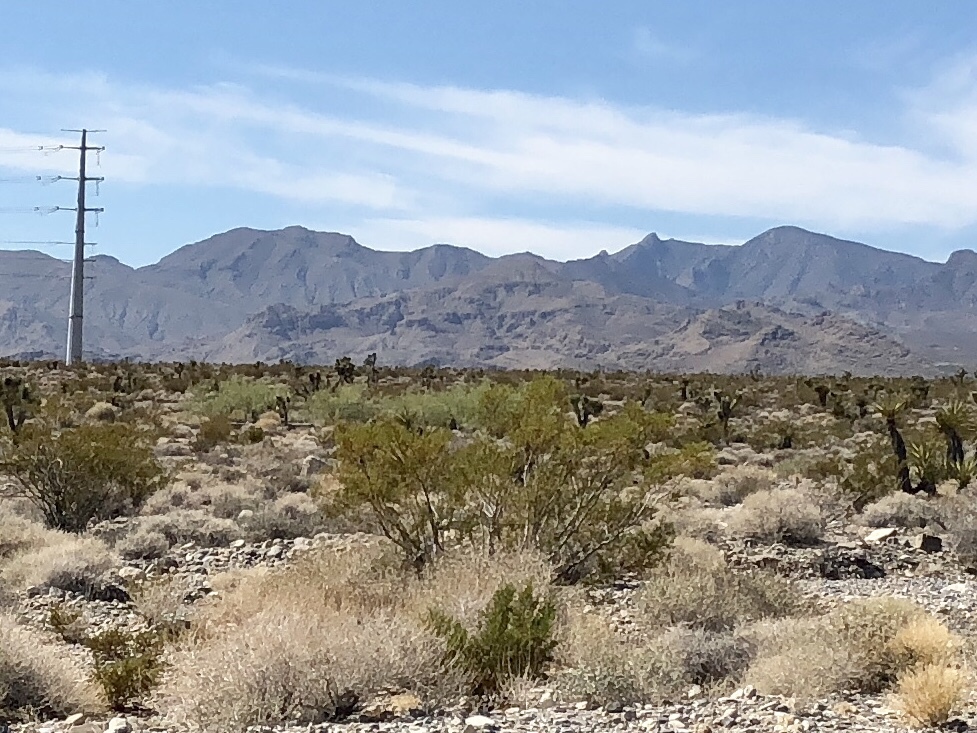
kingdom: Plantae
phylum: Tracheophyta
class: Magnoliopsida
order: Zygophyllales
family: Zygophyllaceae
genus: Larrea
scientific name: Larrea tridentata
